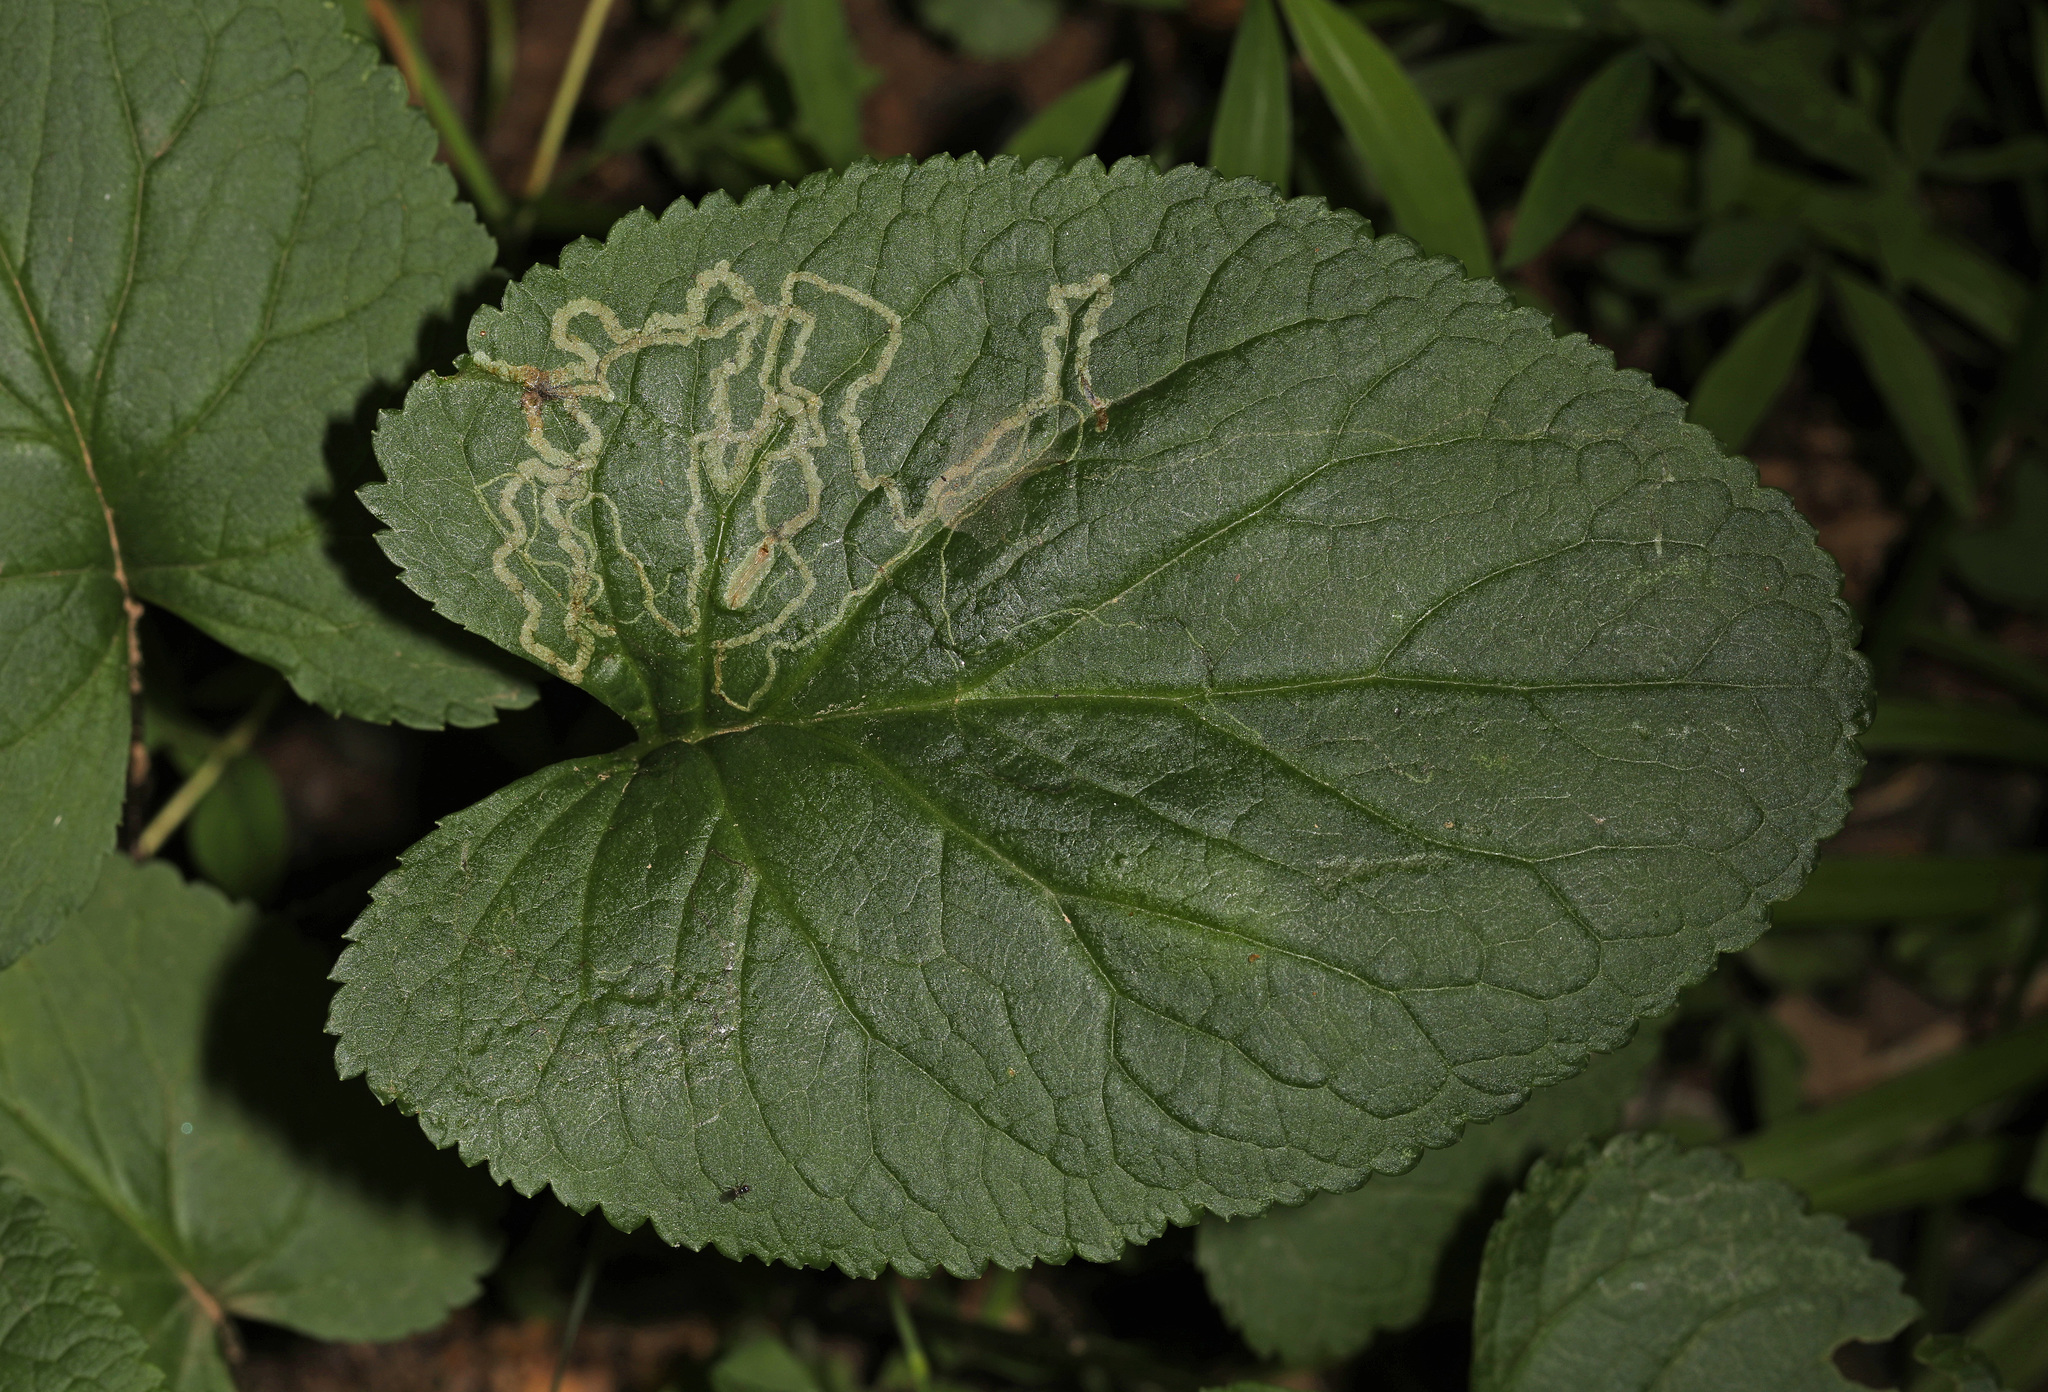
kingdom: Animalia
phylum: Arthropoda
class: Insecta
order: Lepidoptera
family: Gracillariidae
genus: Phyllocnistis
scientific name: Phyllocnistis insignis
